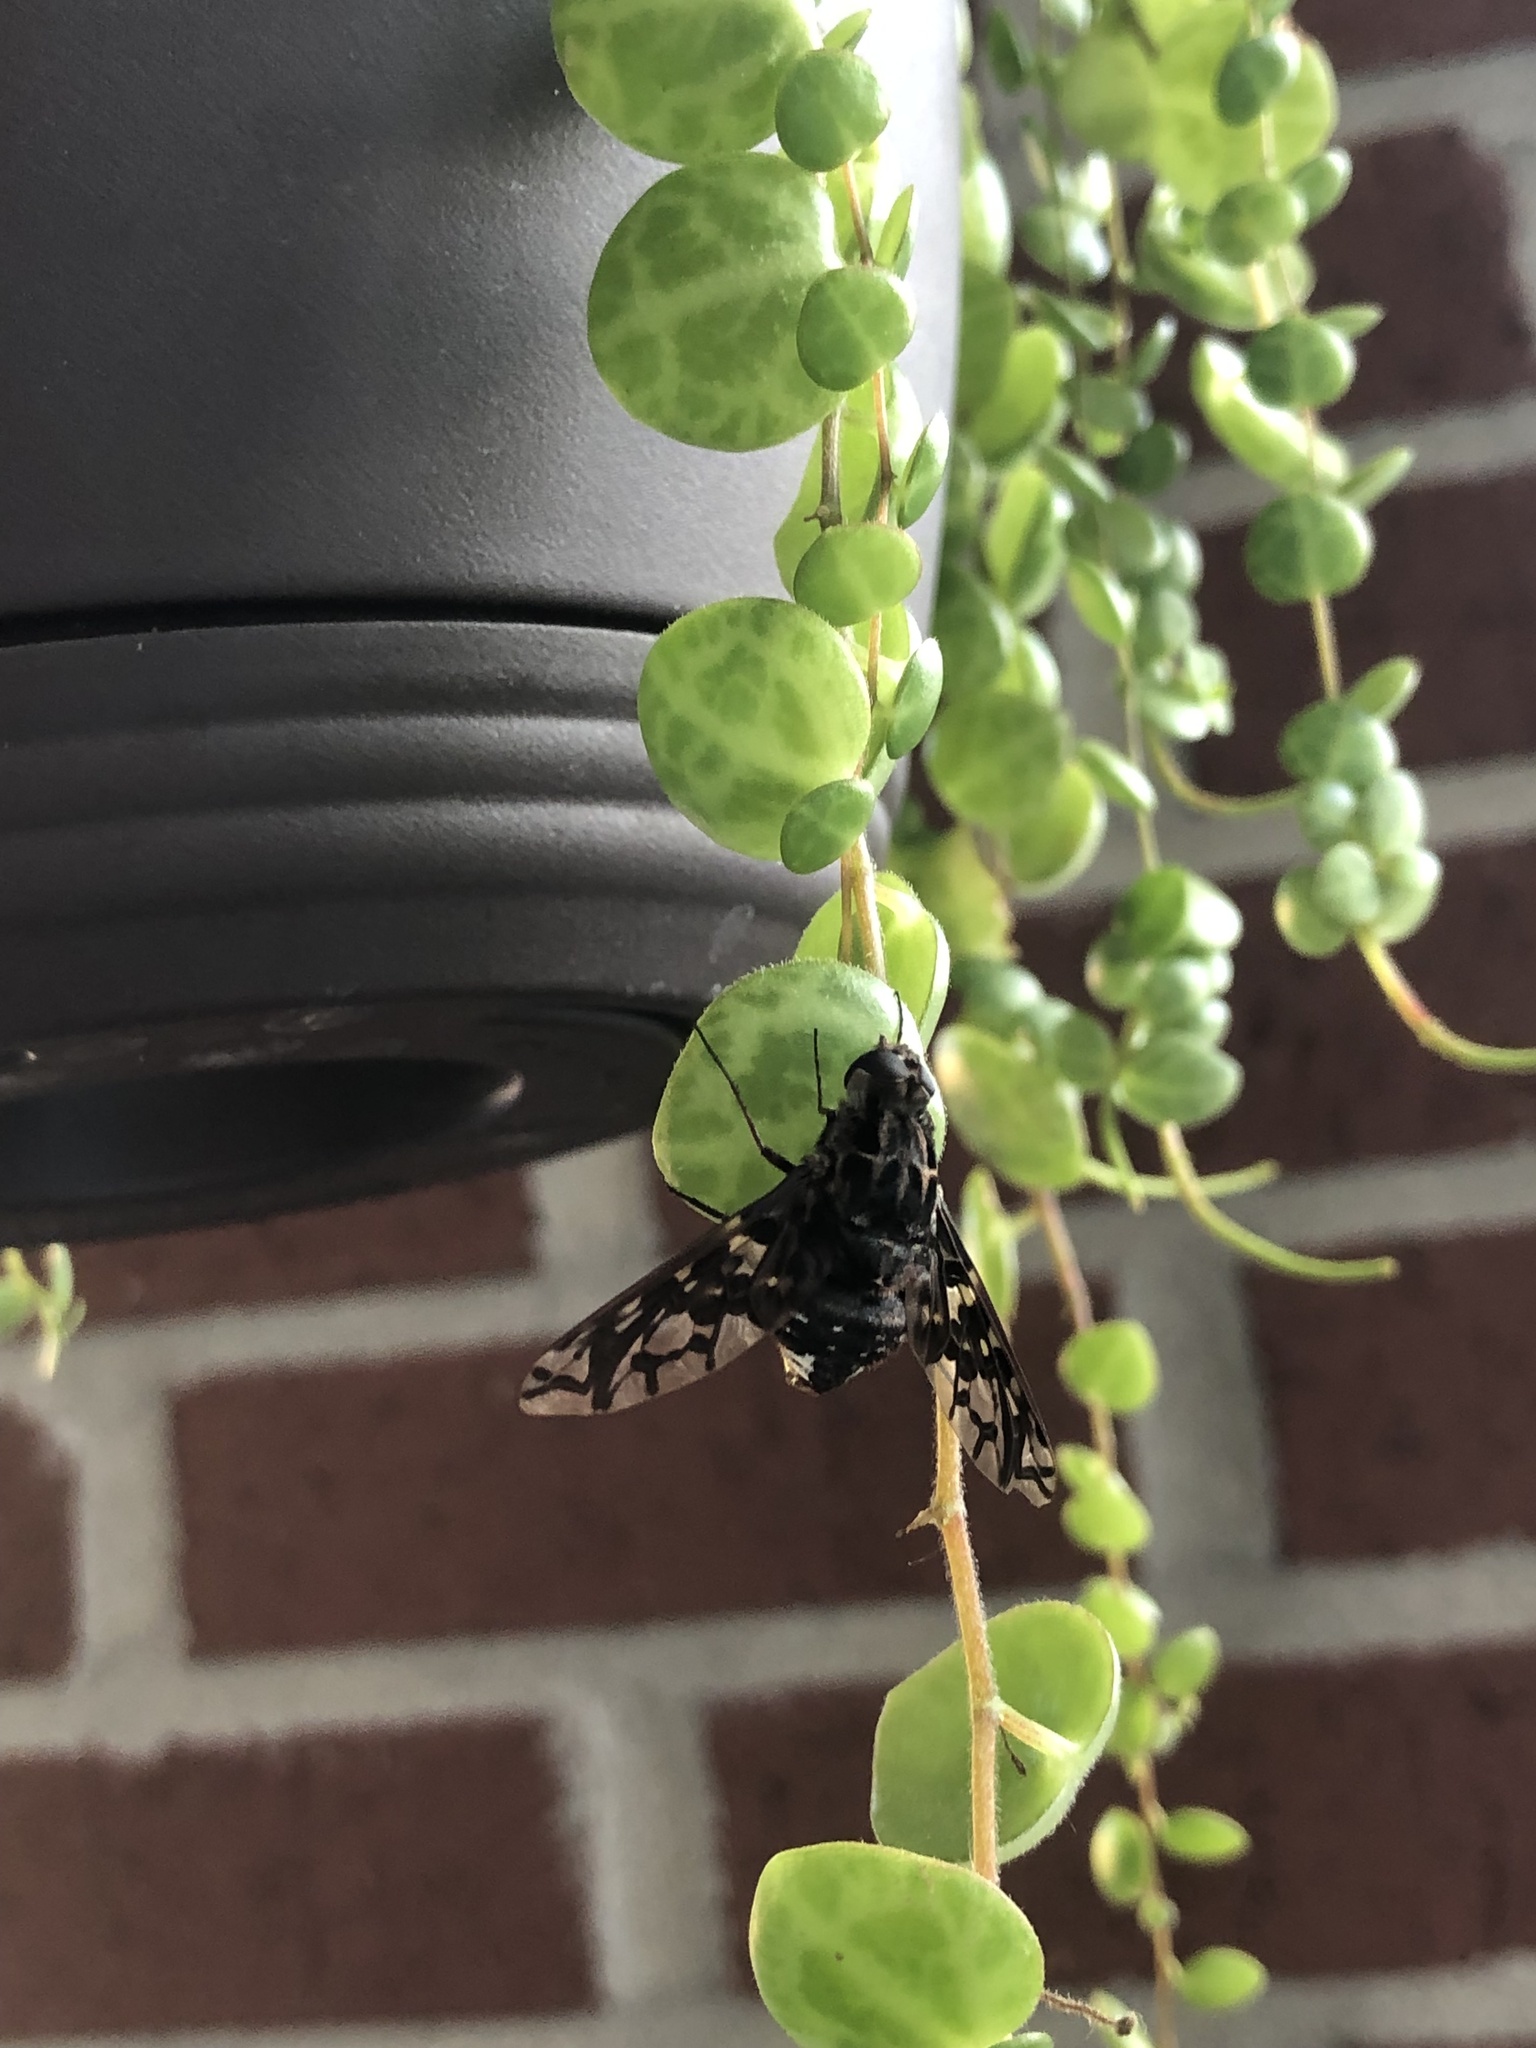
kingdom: Animalia
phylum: Arthropoda
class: Insecta
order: Diptera
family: Bombyliidae
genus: Xenox
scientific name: Xenox tigrinus
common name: Tiger bee fly
